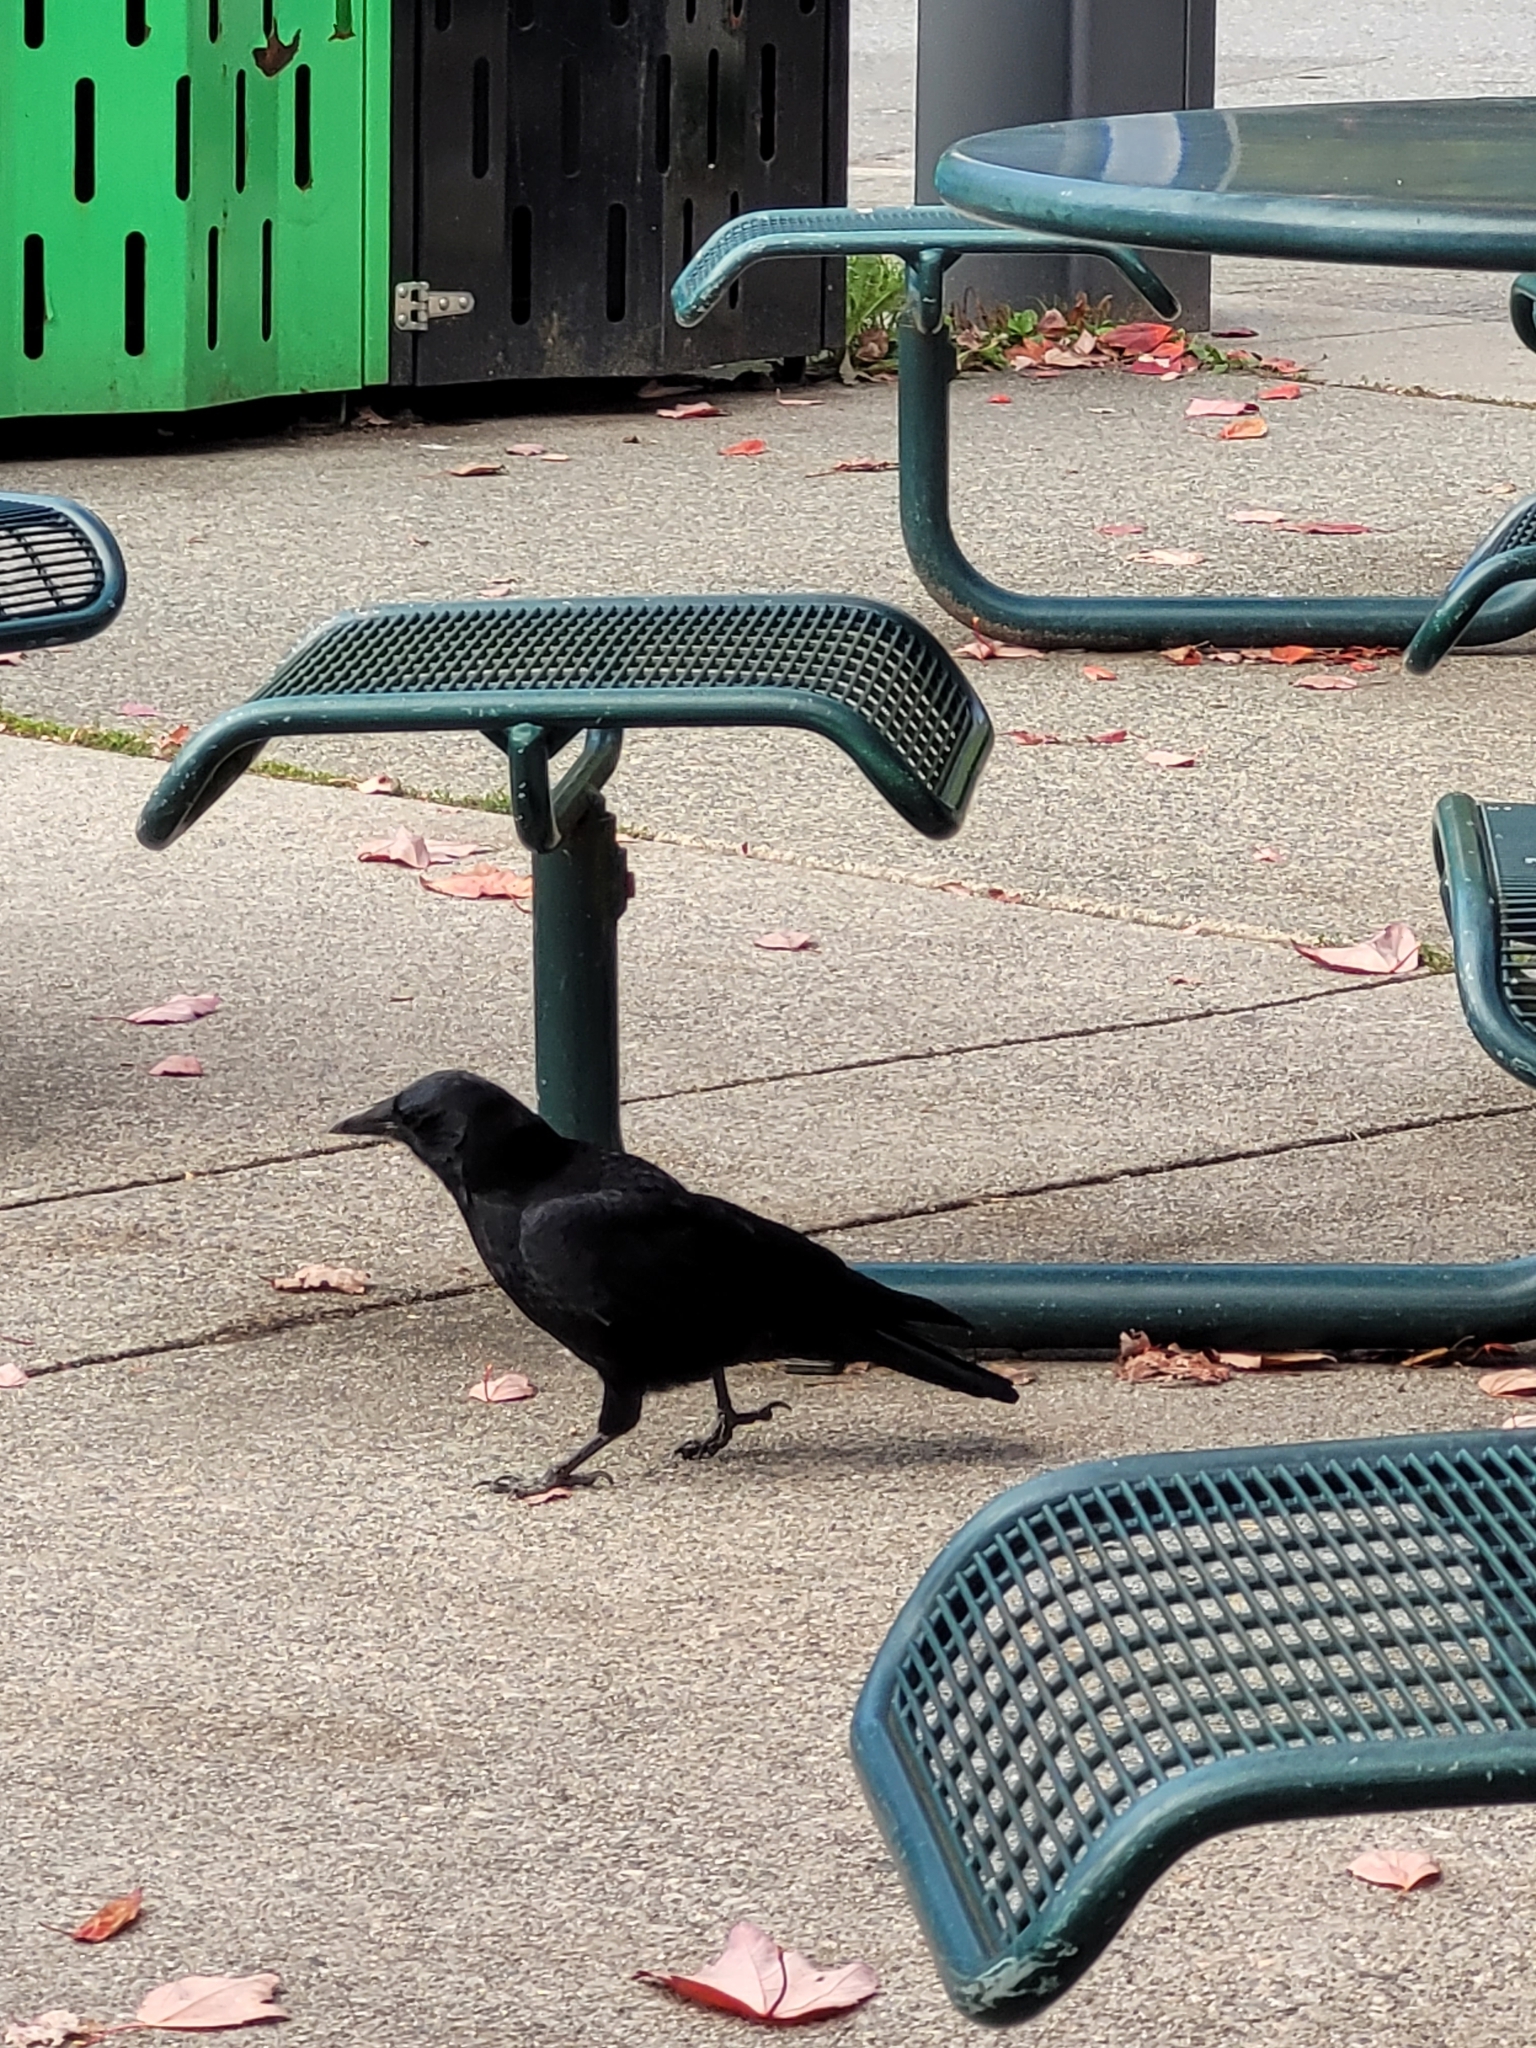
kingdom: Animalia
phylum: Chordata
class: Aves
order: Passeriformes
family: Corvidae
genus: Corvus
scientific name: Corvus brachyrhynchos
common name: American crow
